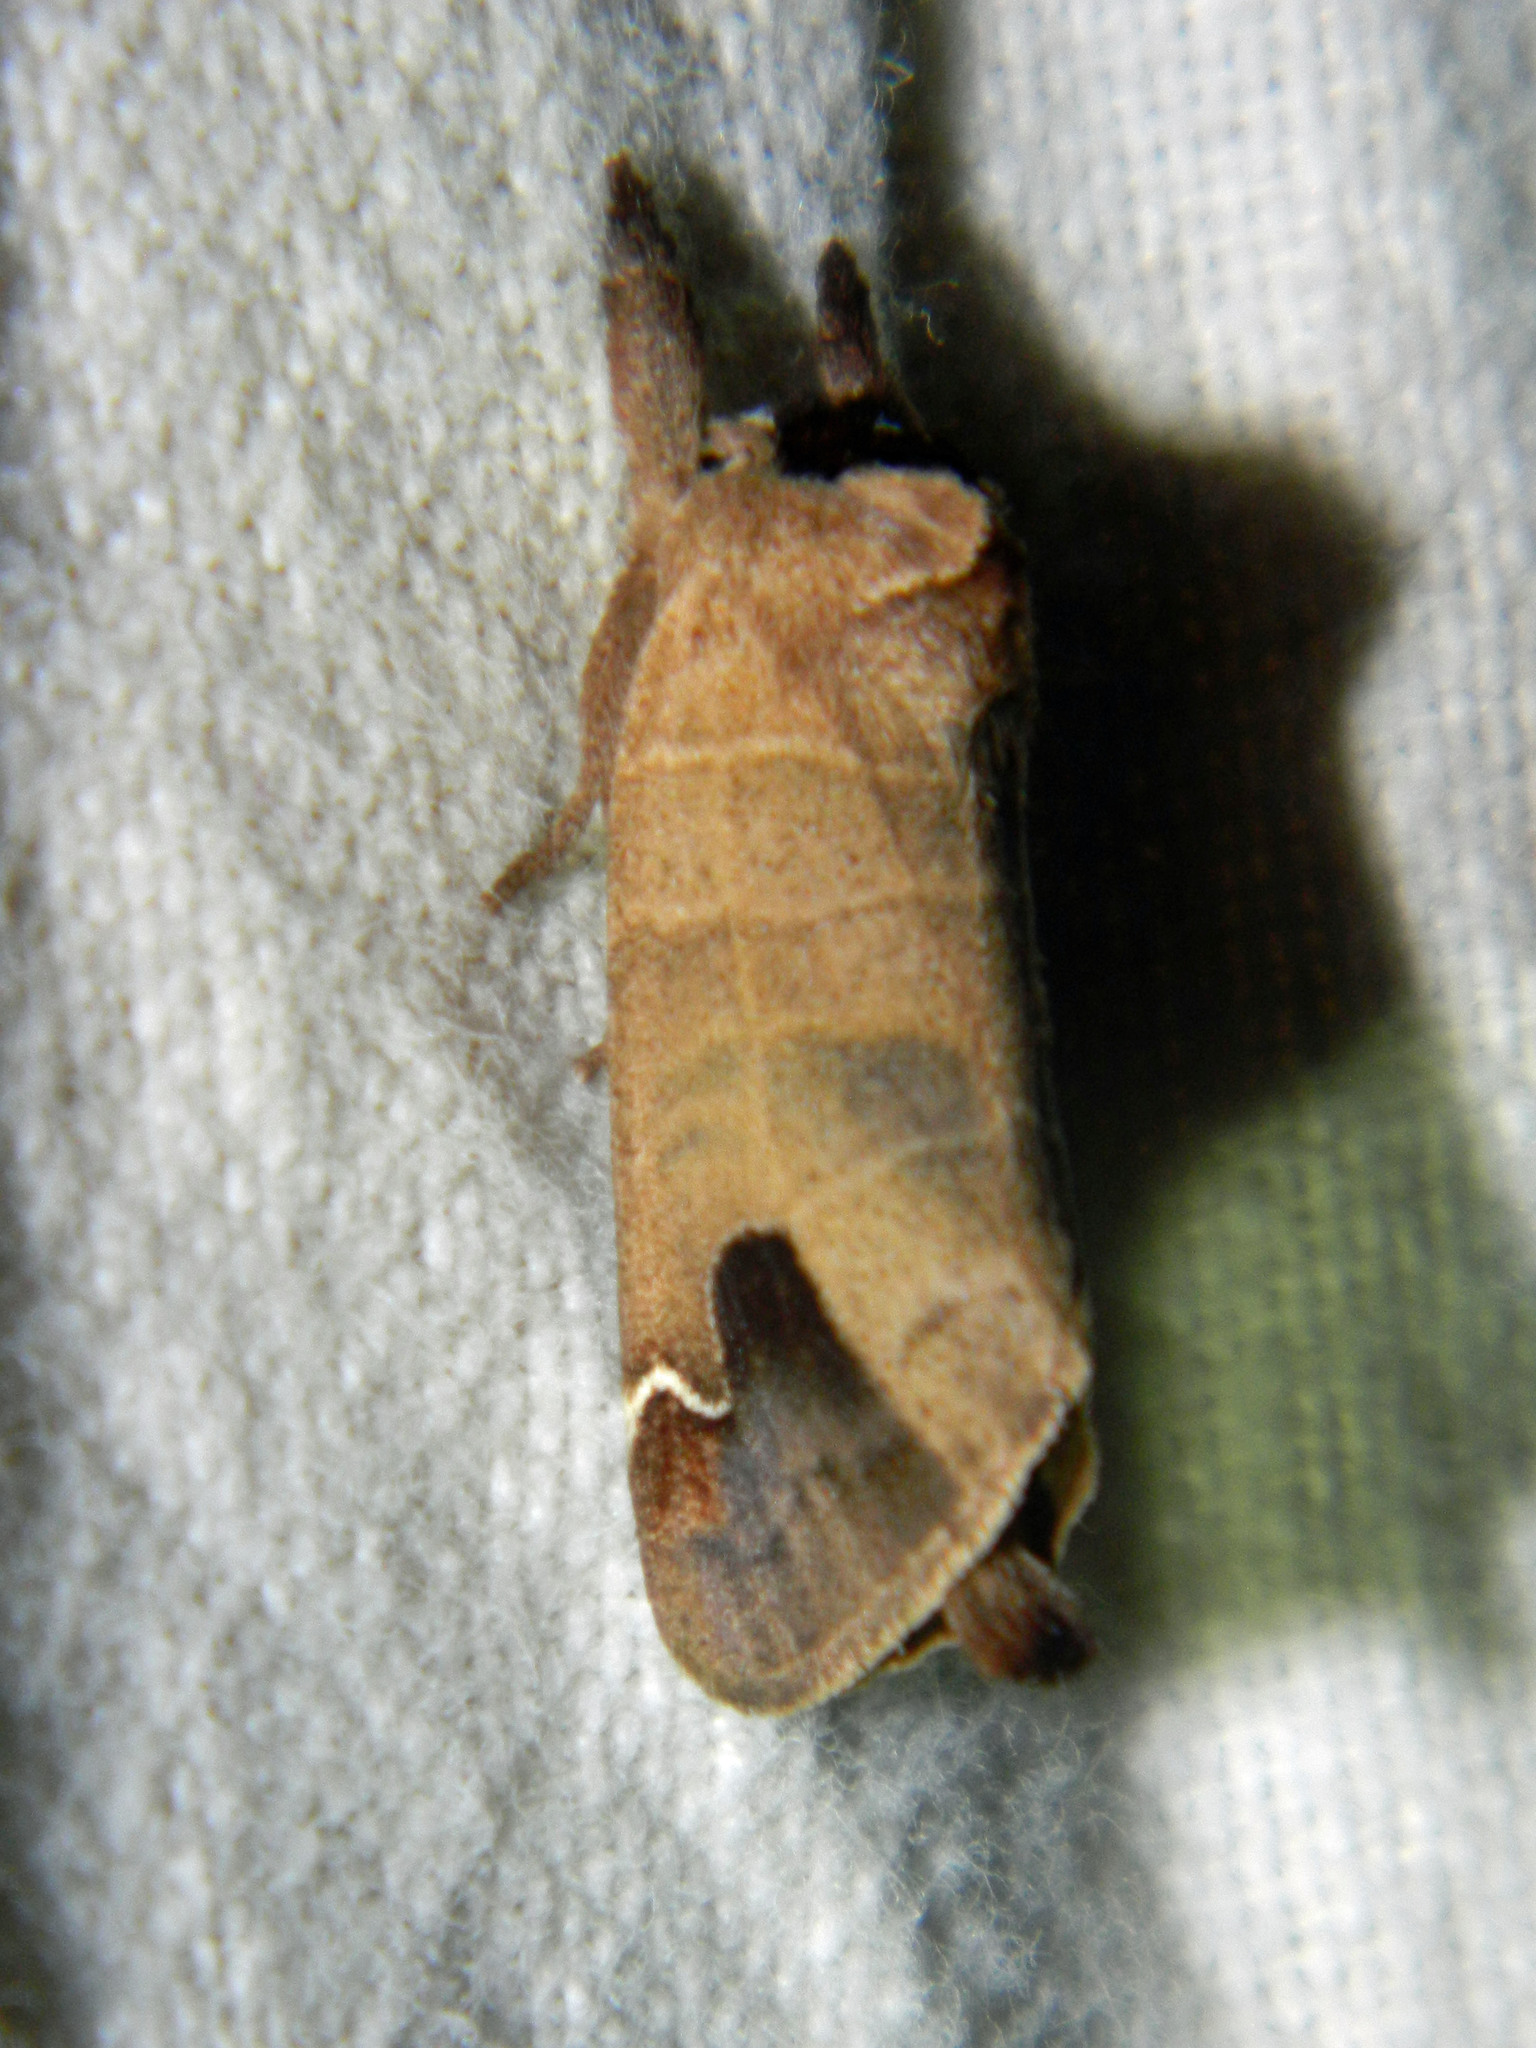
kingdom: Animalia
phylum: Arthropoda
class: Insecta
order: Lepidoptera
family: Notodontidae
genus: Clostera
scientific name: Clostera albosigma
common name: Sigmoid prominent
